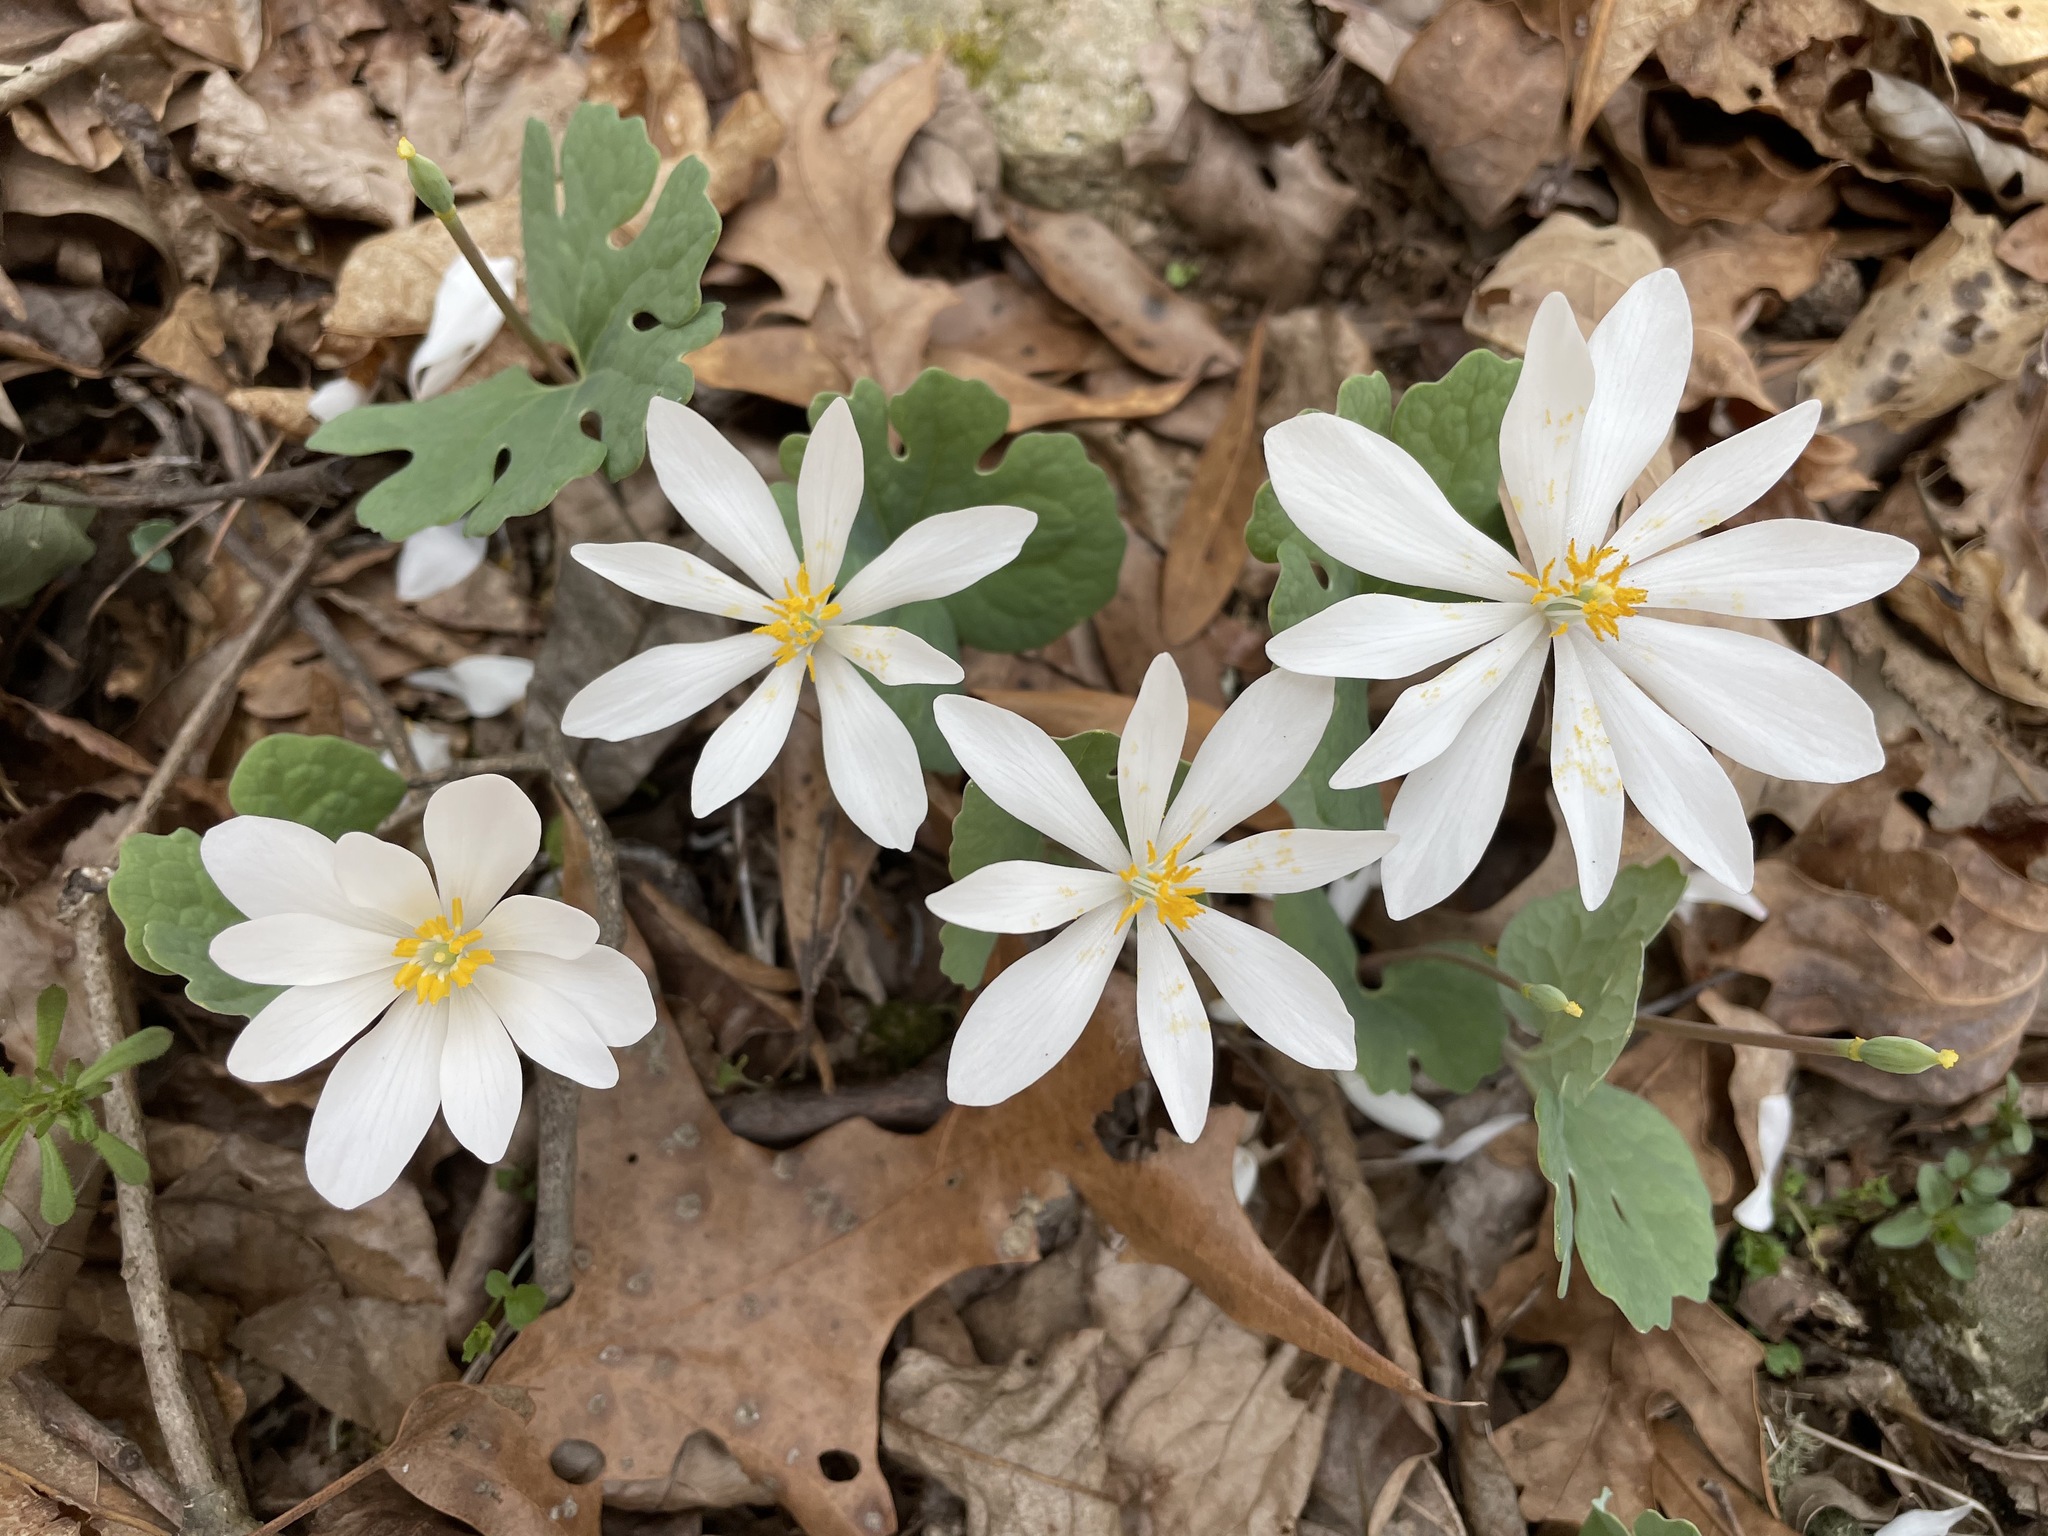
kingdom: Plantae
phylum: Tracheophyta
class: Magnoliopsida
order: Ranunculales
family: Papaveraceae
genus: Sanguinaria
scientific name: Sanguinaria canadensis
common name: Bloodroot
